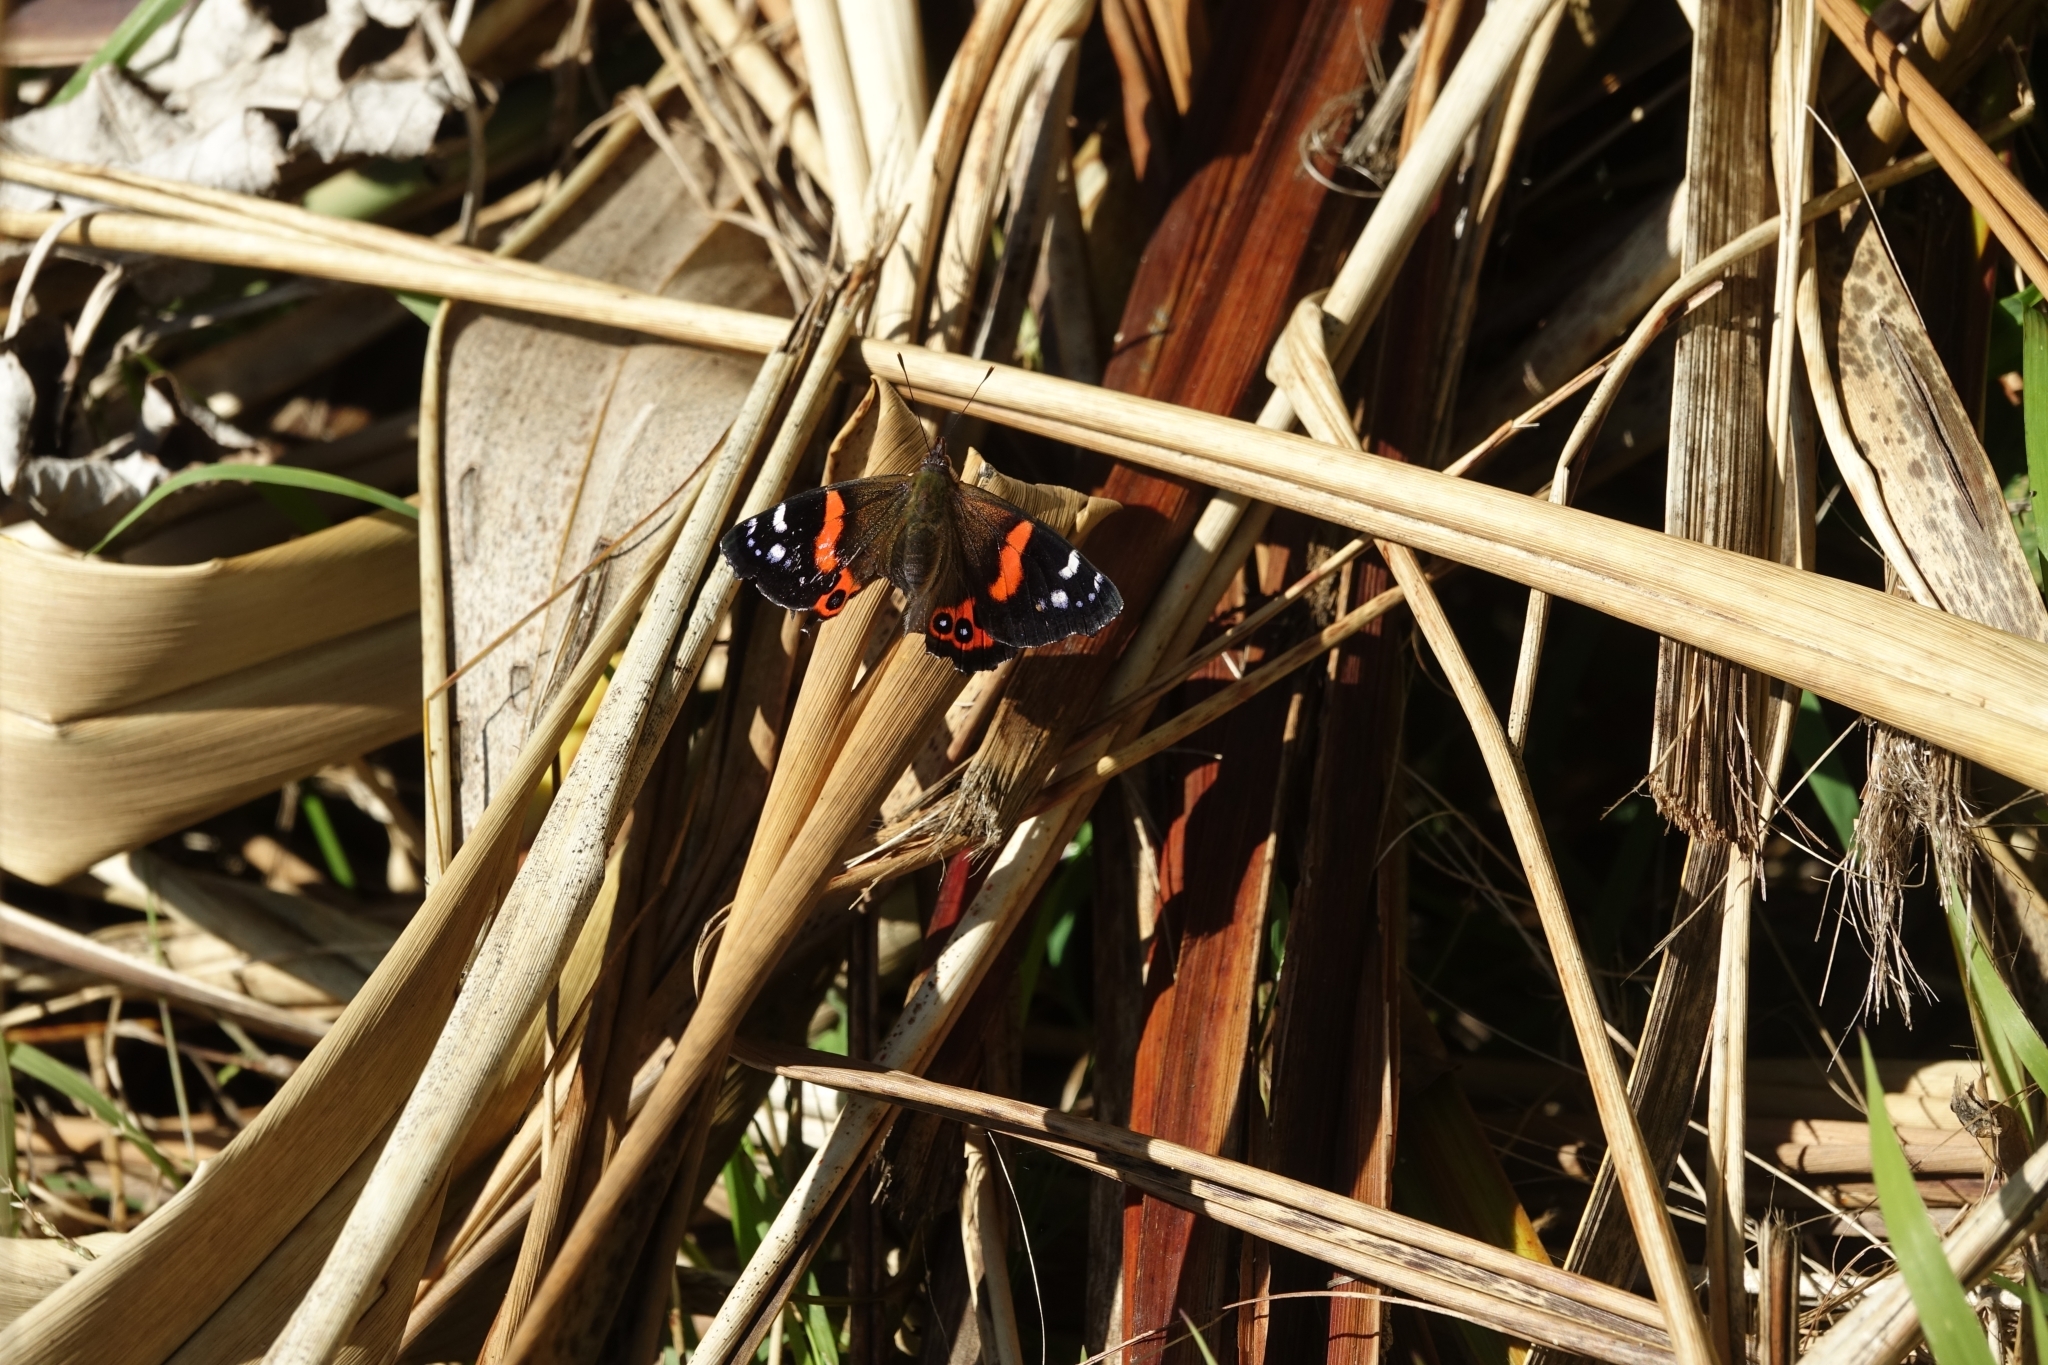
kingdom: Animalia
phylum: Arthropoda
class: Insecta
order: Lepidoptera
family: Nymphalidae
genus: Vanessa
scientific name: Vanessa gonerilla
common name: New zealand red admiral
